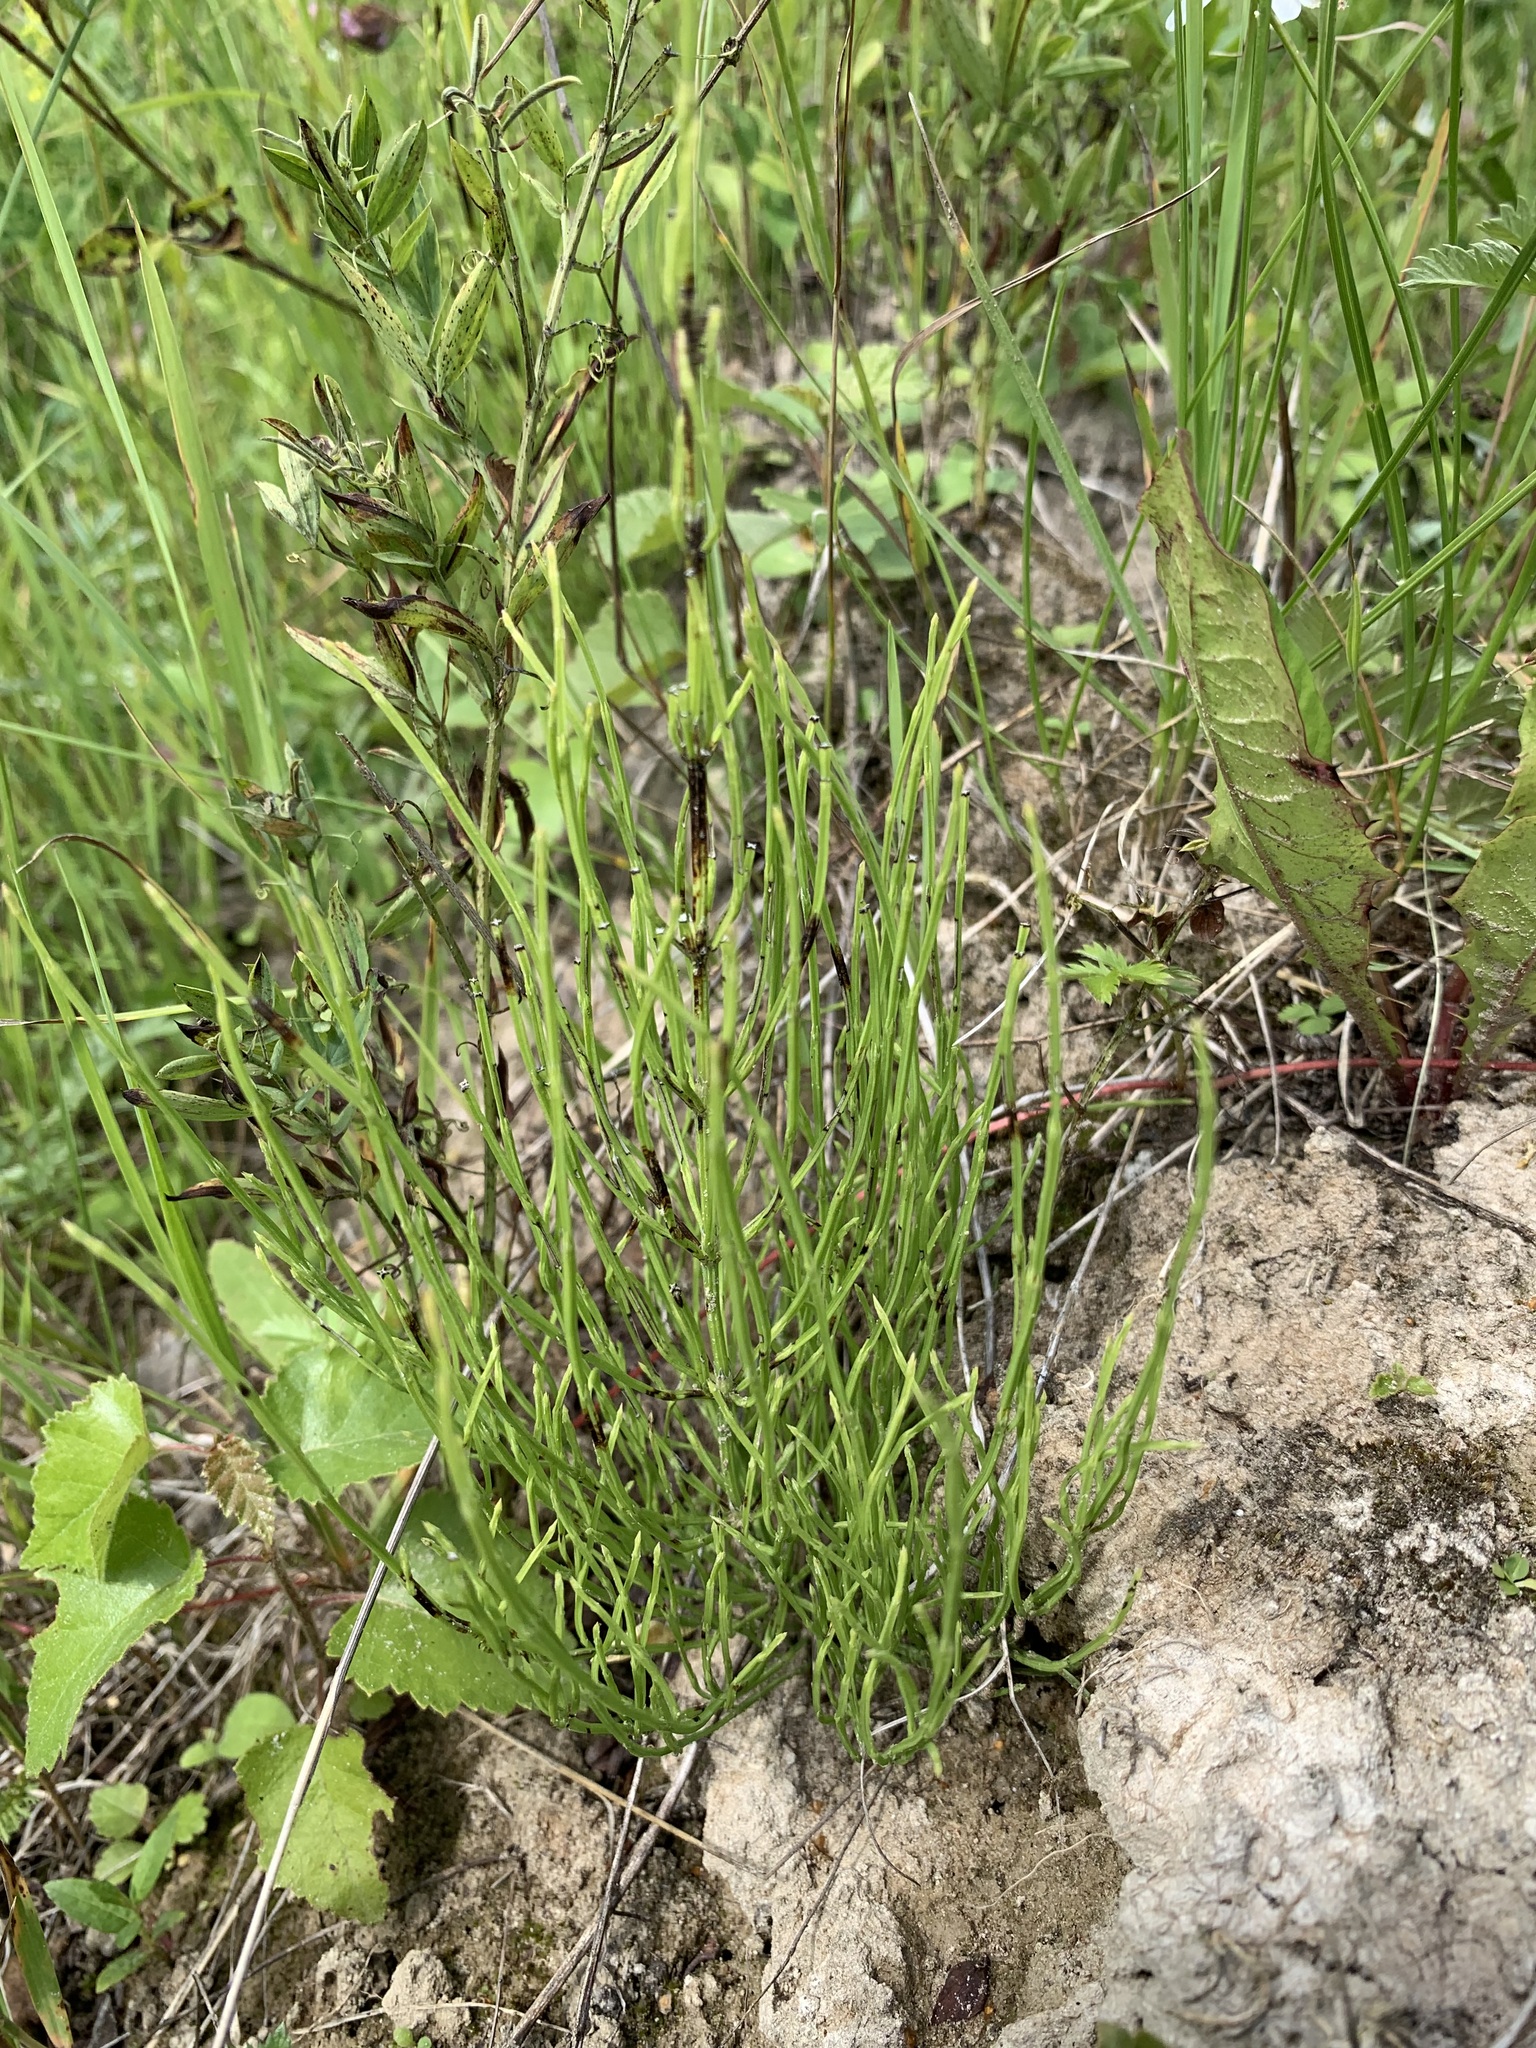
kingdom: Plantae
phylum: Tracheophyta
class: Polypodiopsida
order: Equisetales
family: Equisetaceae
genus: Equisetum
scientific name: Equisetum arvense
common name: Field horsetail
